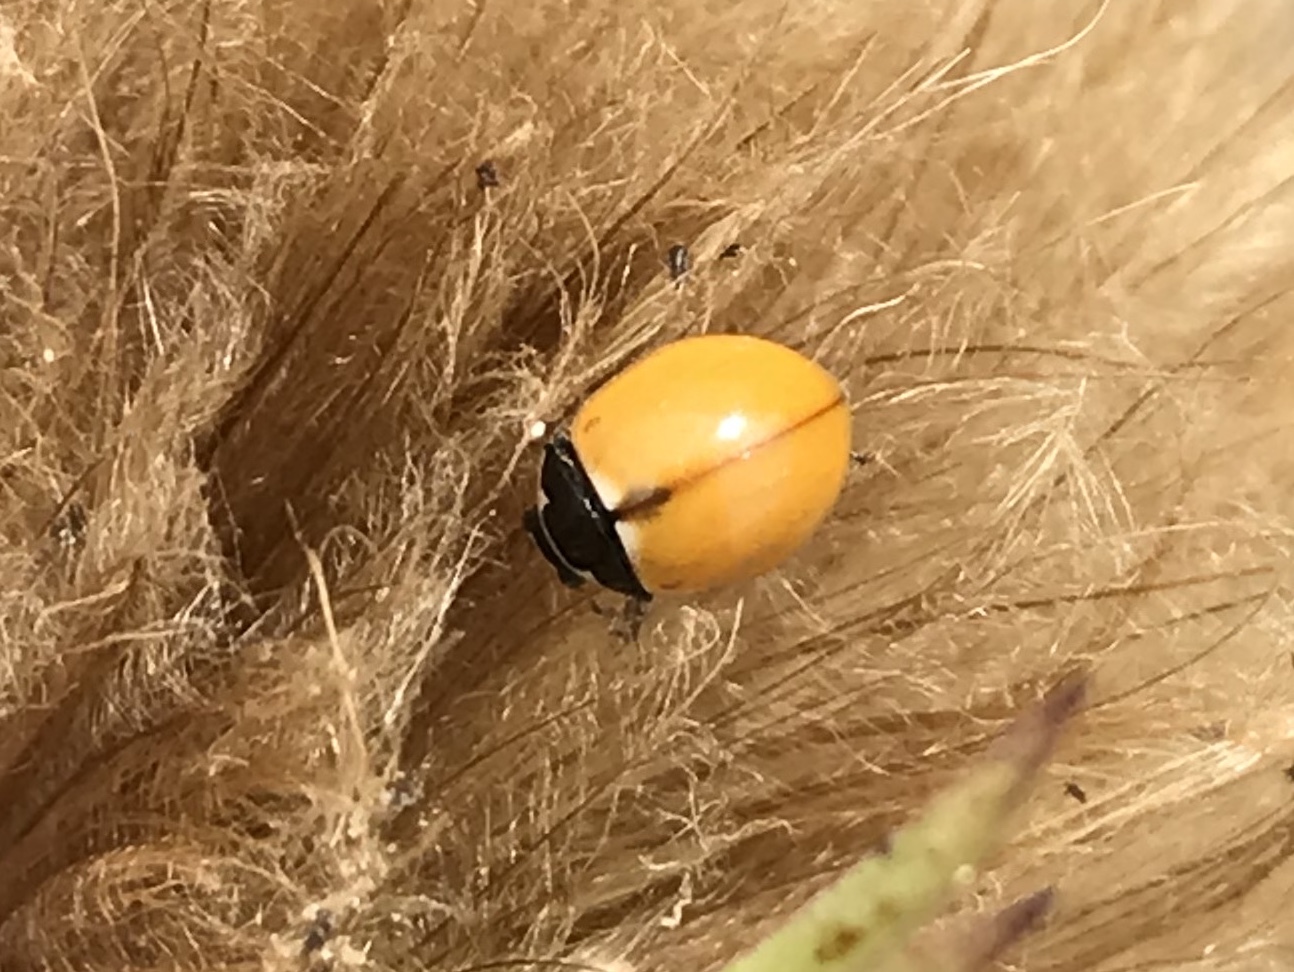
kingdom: Animalia
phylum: Arthropoda
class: Insecta
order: Coleoptera
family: Coccinellidae
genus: Coccinella
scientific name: Coccinella trifasciata
